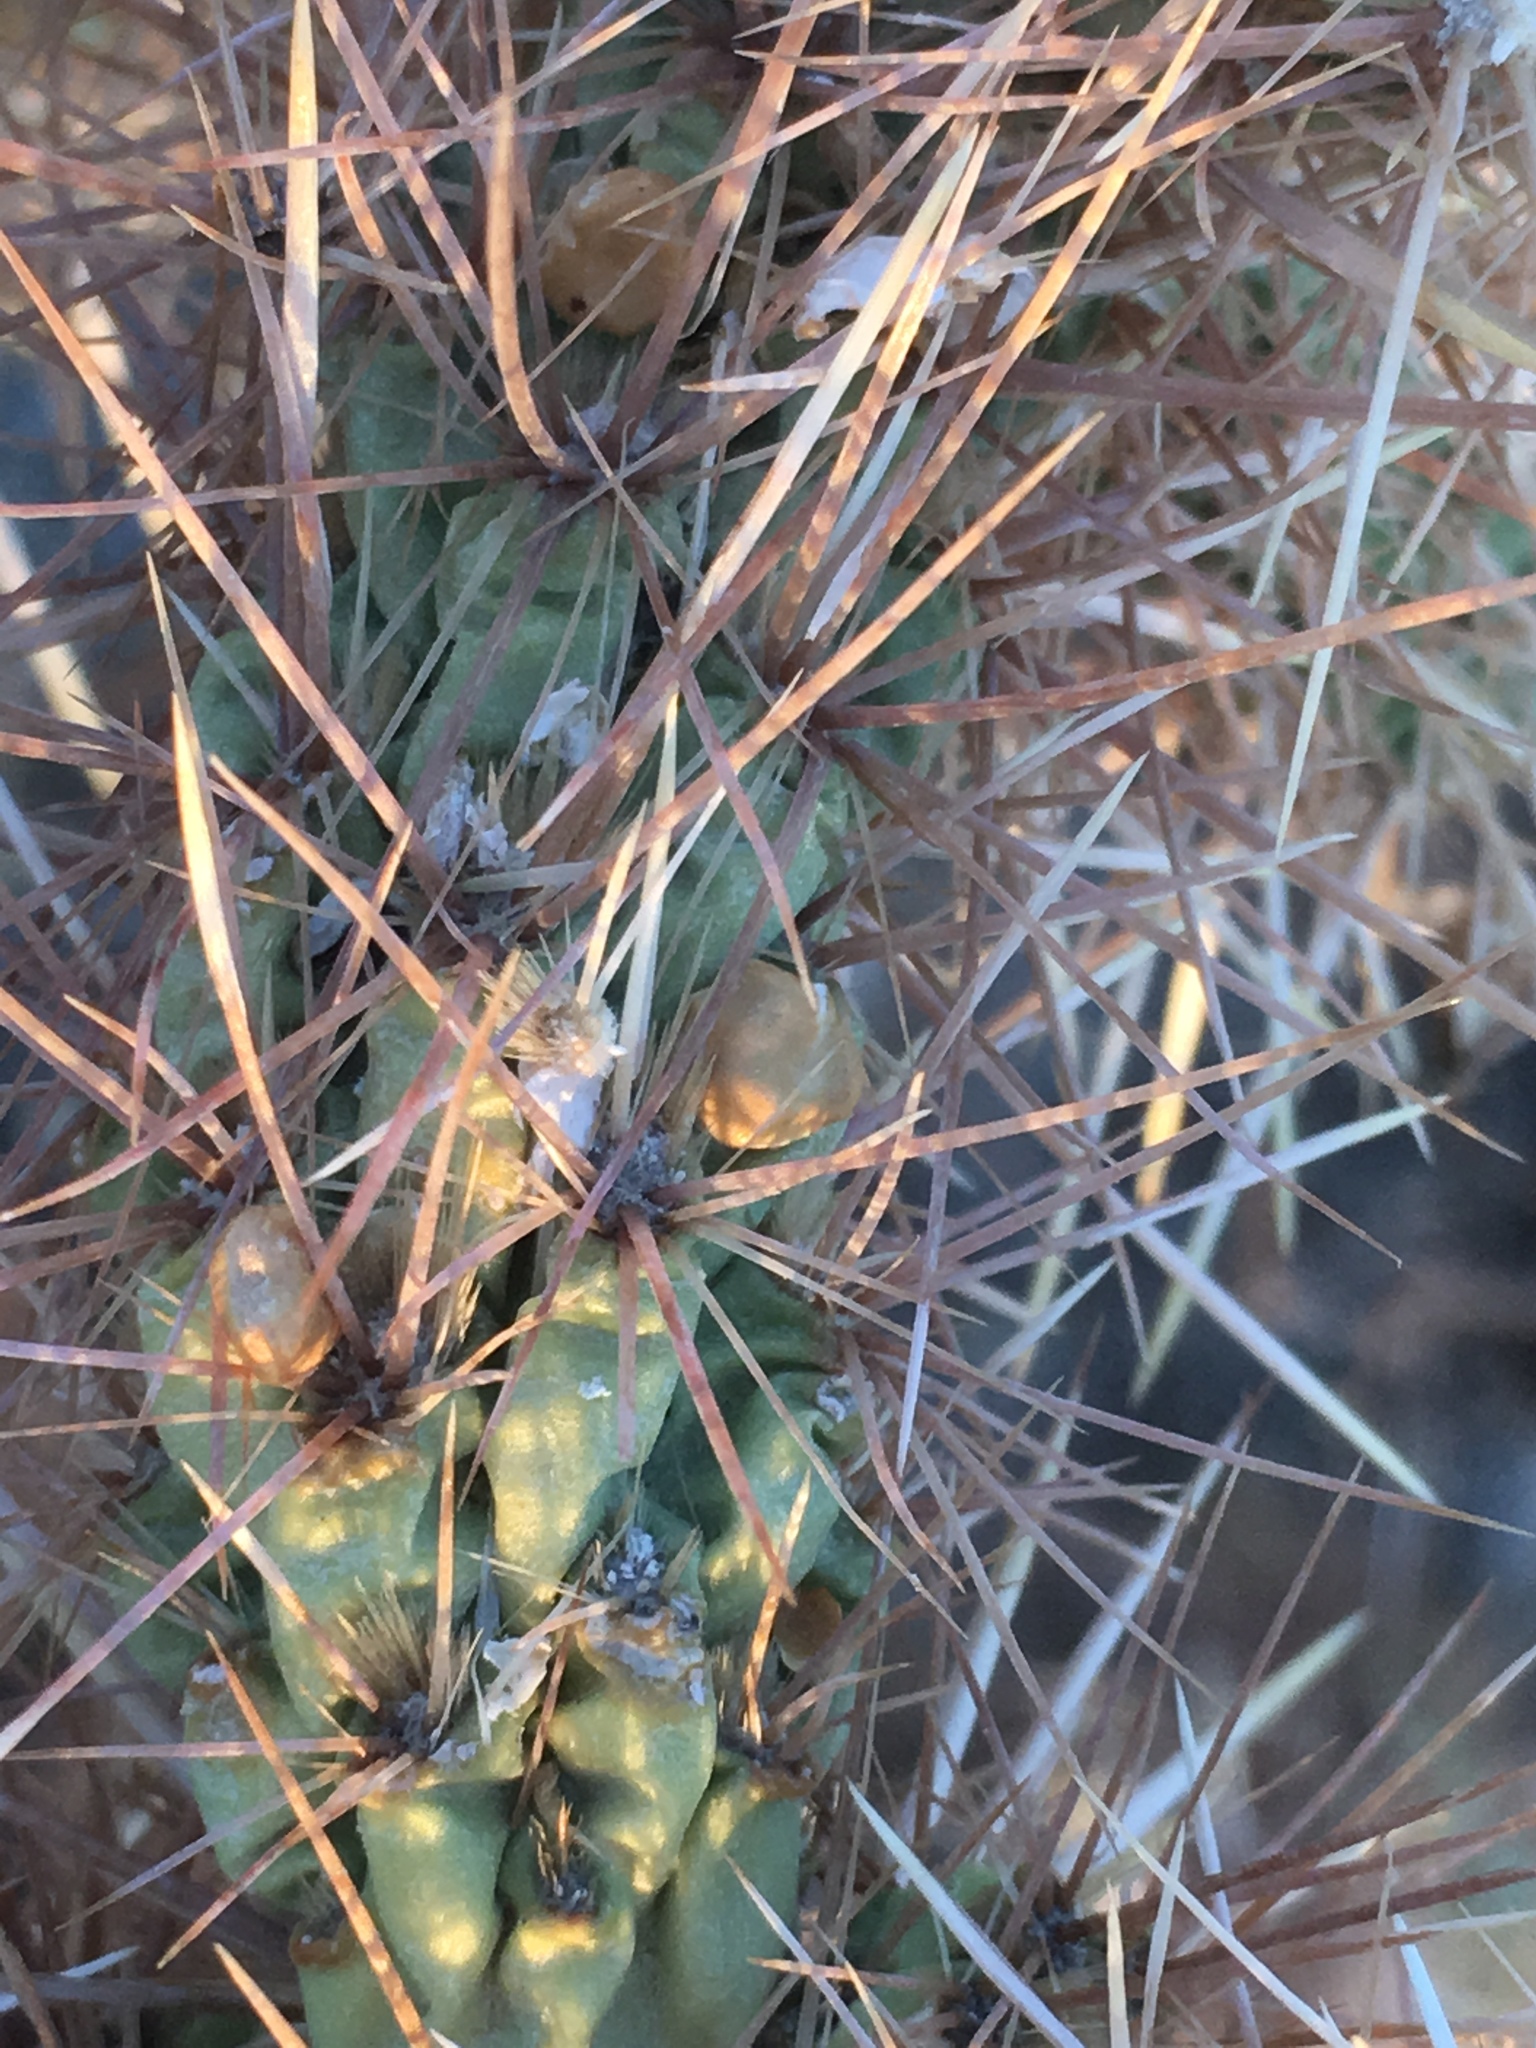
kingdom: Plantae
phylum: Tracheophyta
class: Magnoliopsida
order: Caryophyllales
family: Cactaceae
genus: Cylindropuntia
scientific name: Cylindropuntia echinocarpa
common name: Ground cholla
